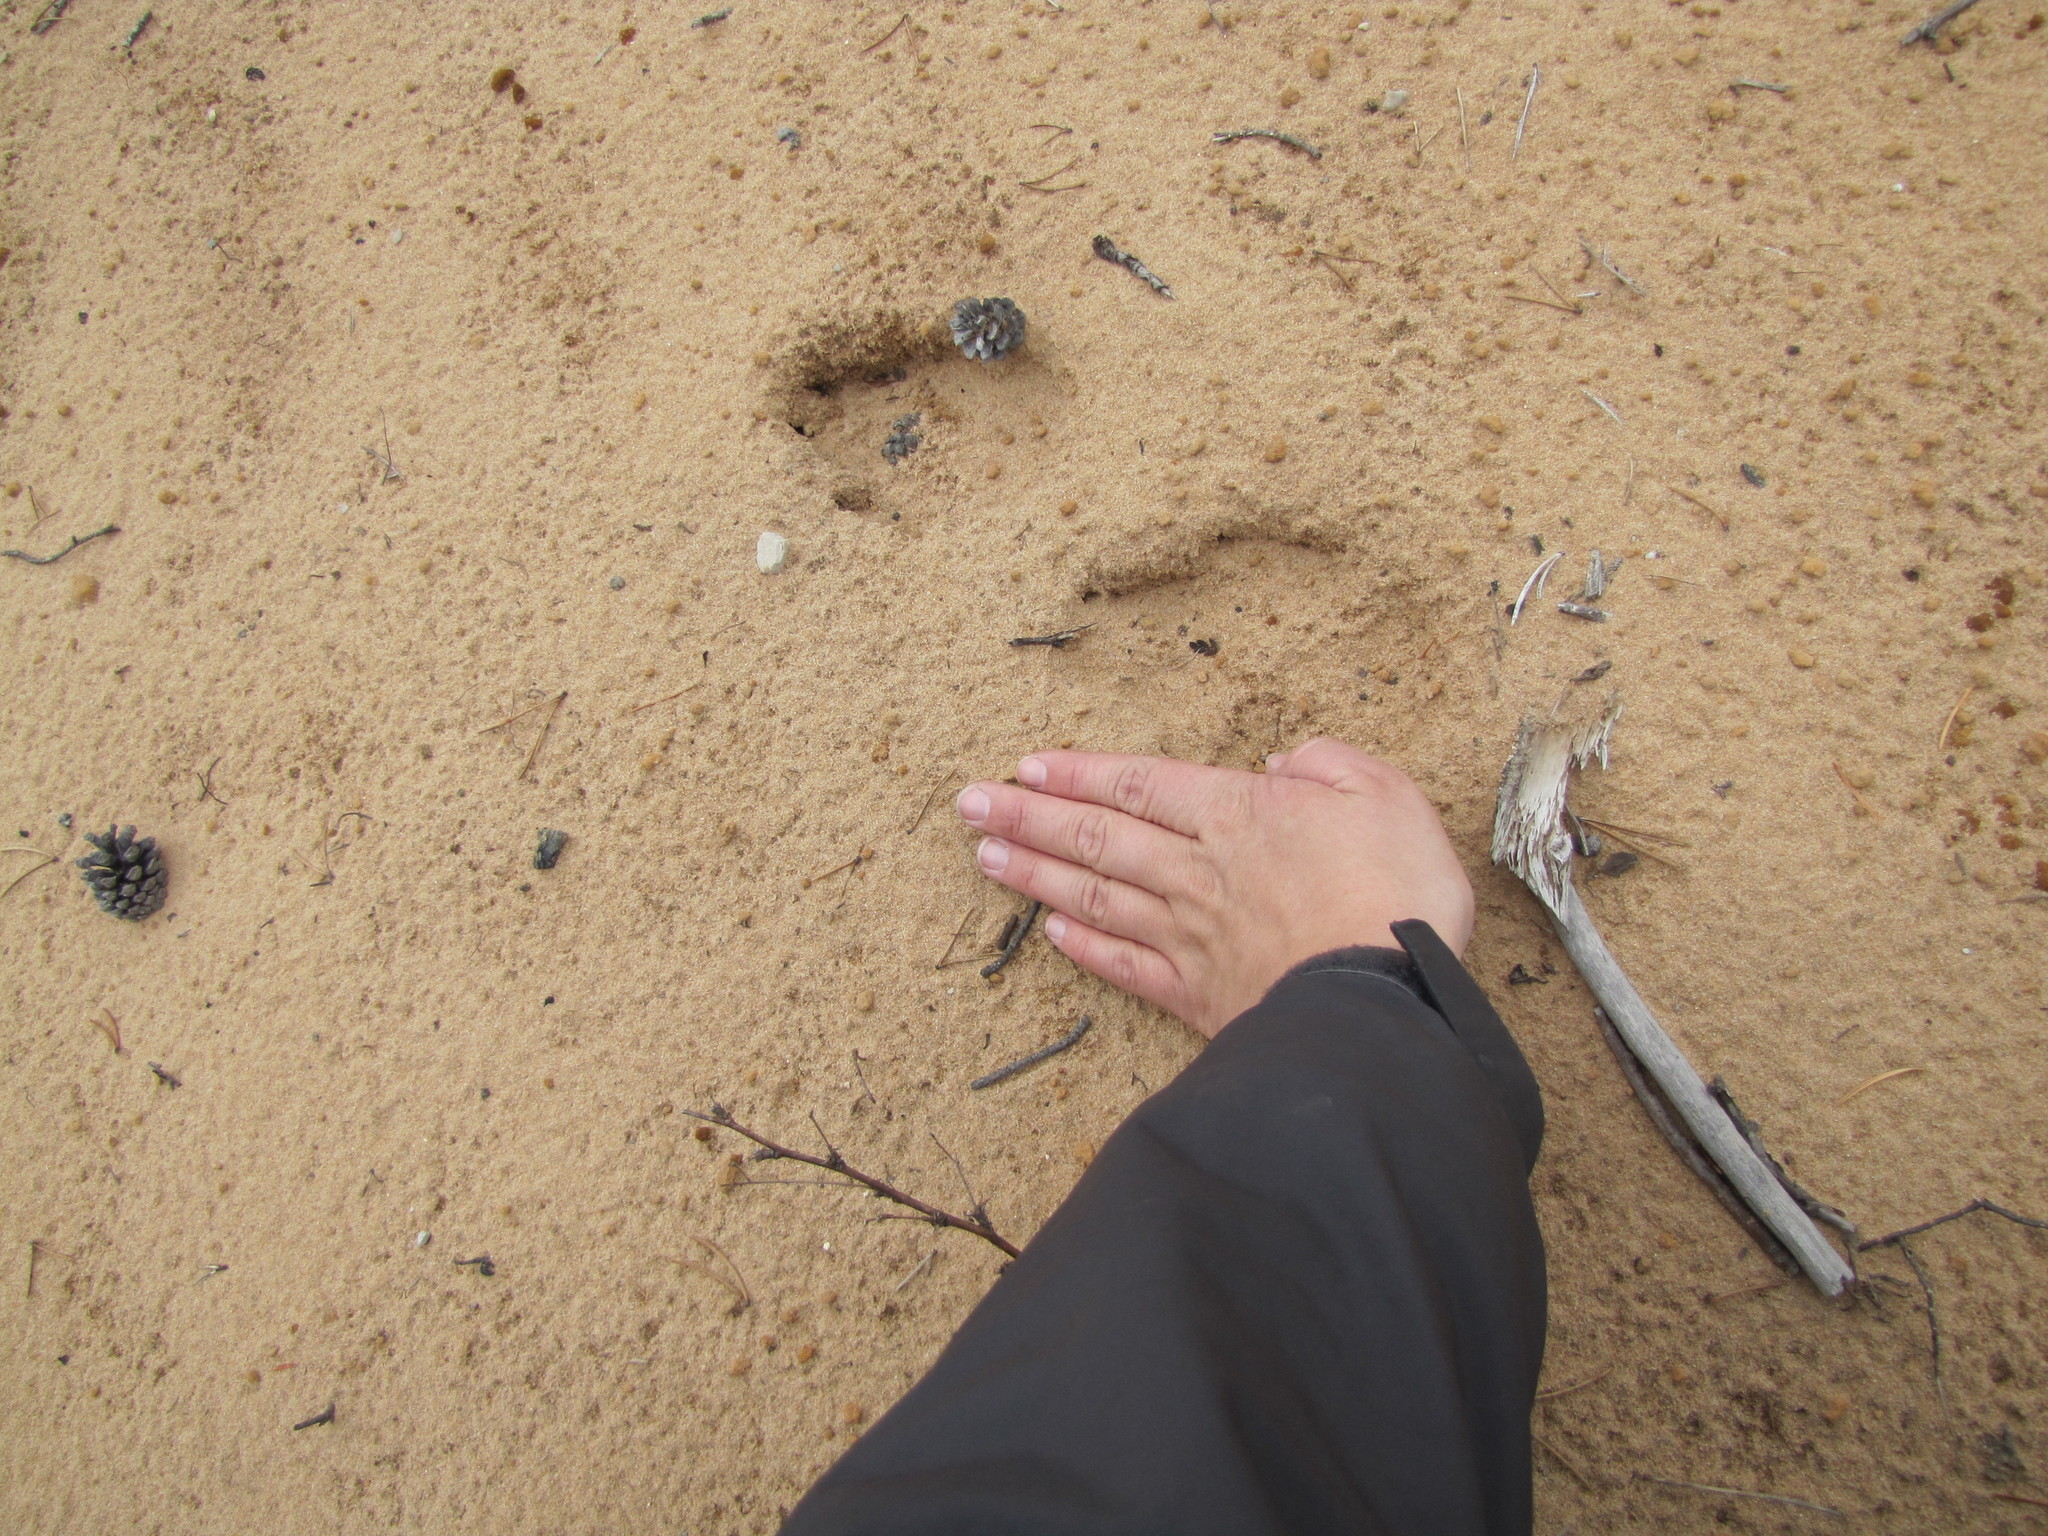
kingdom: Animalia
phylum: Chordata
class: Mammalia
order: Carnivora
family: Canidae
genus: Canis
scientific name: Canis lupus
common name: Gray wolf
